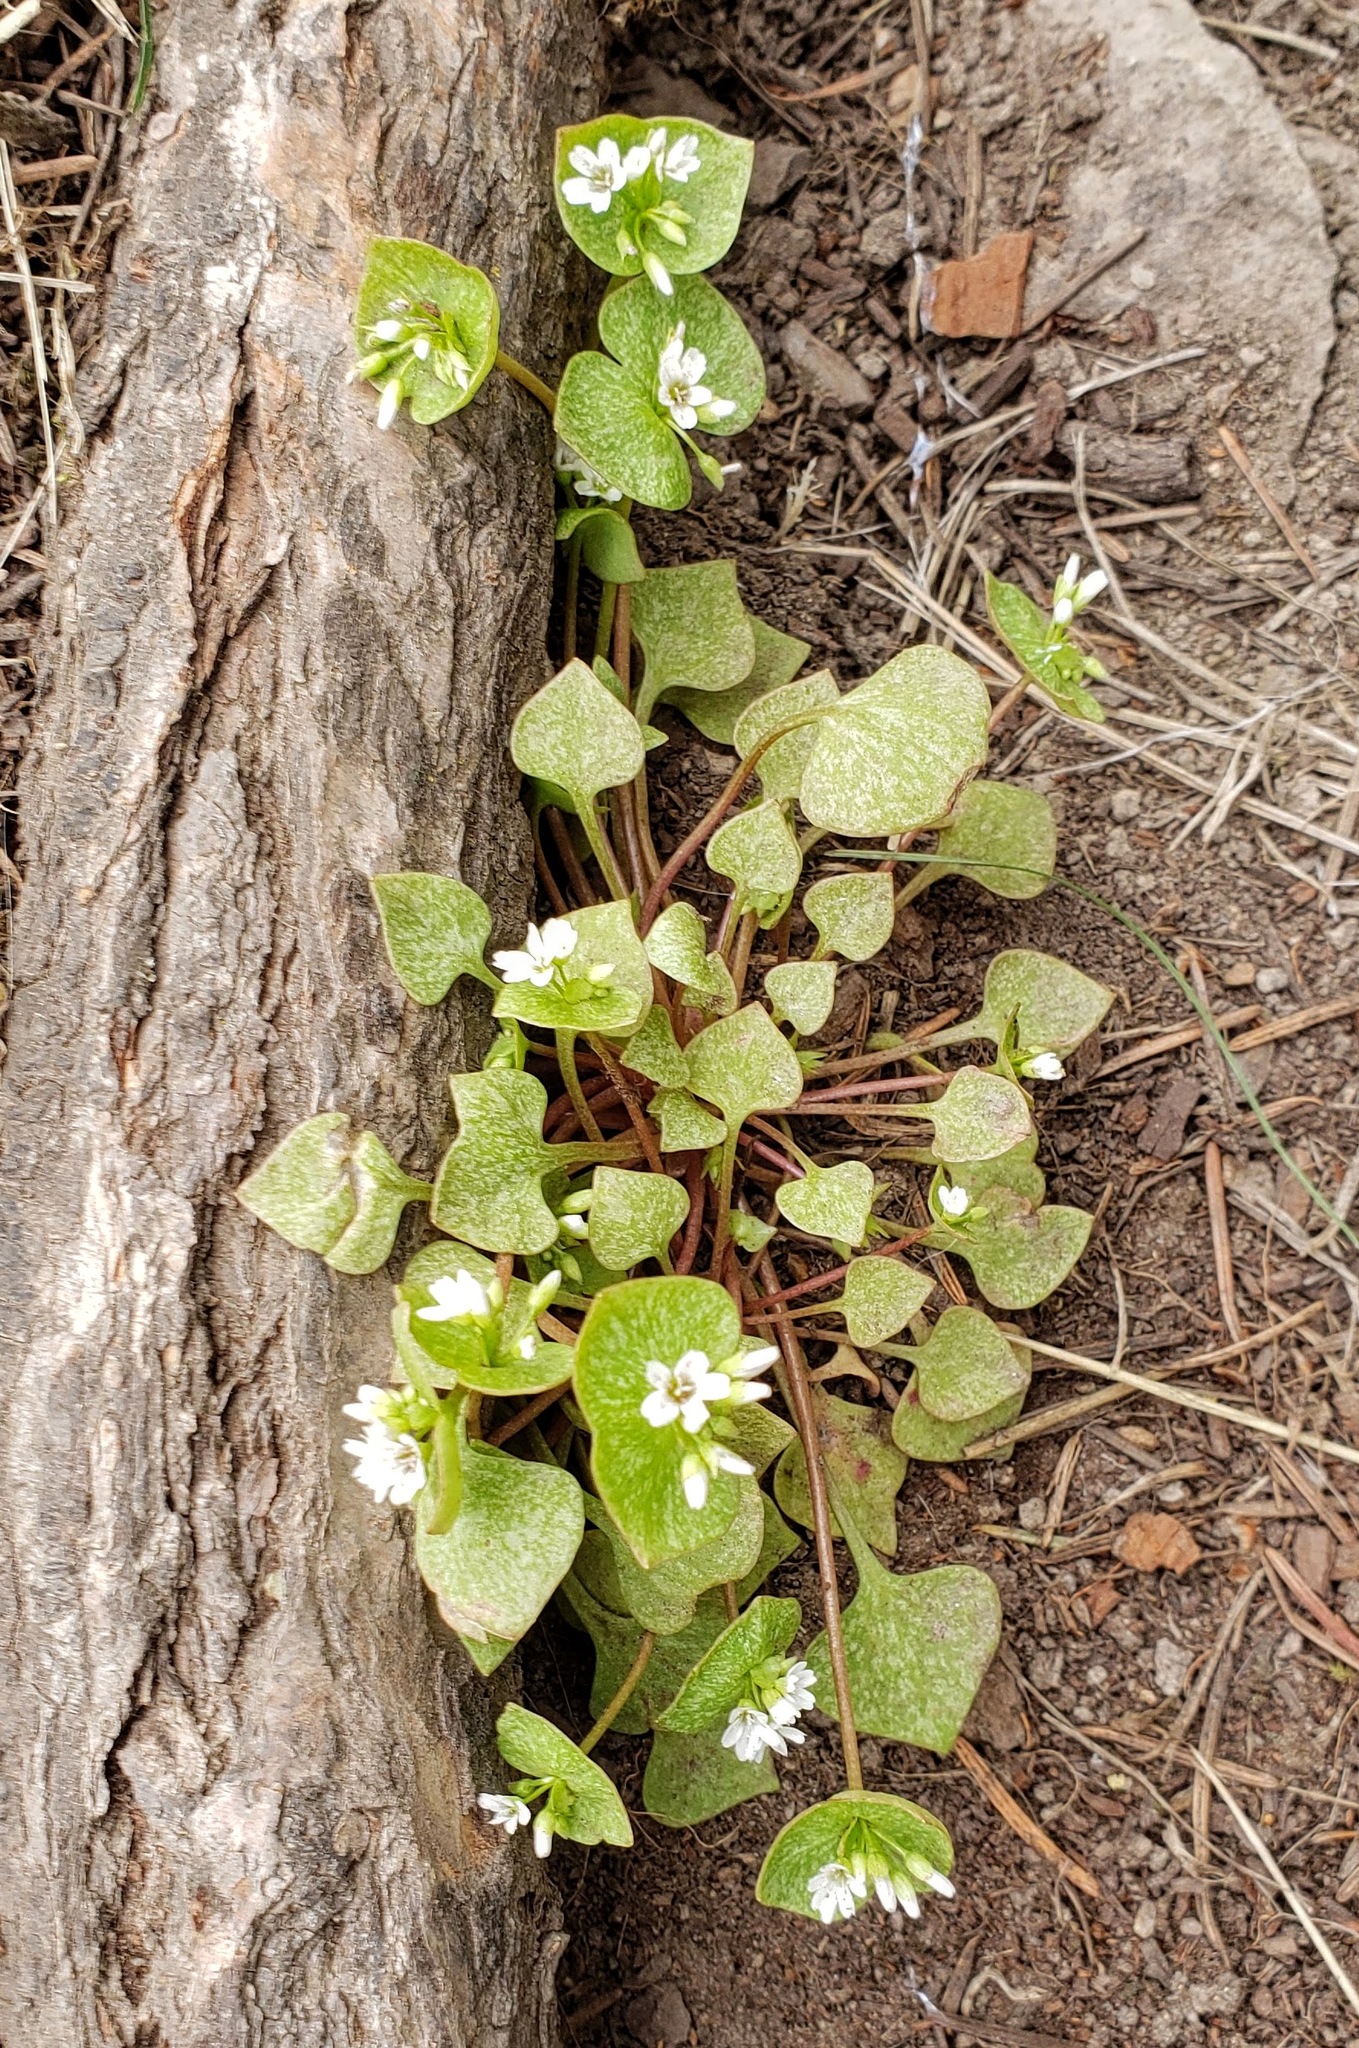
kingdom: Plantae
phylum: Tracheophyta
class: Magnoliopsida
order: Caryophyllales
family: Montiaceae
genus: Claytonia
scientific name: Claytonia rubra
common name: Erubescent miner's-lettuce
